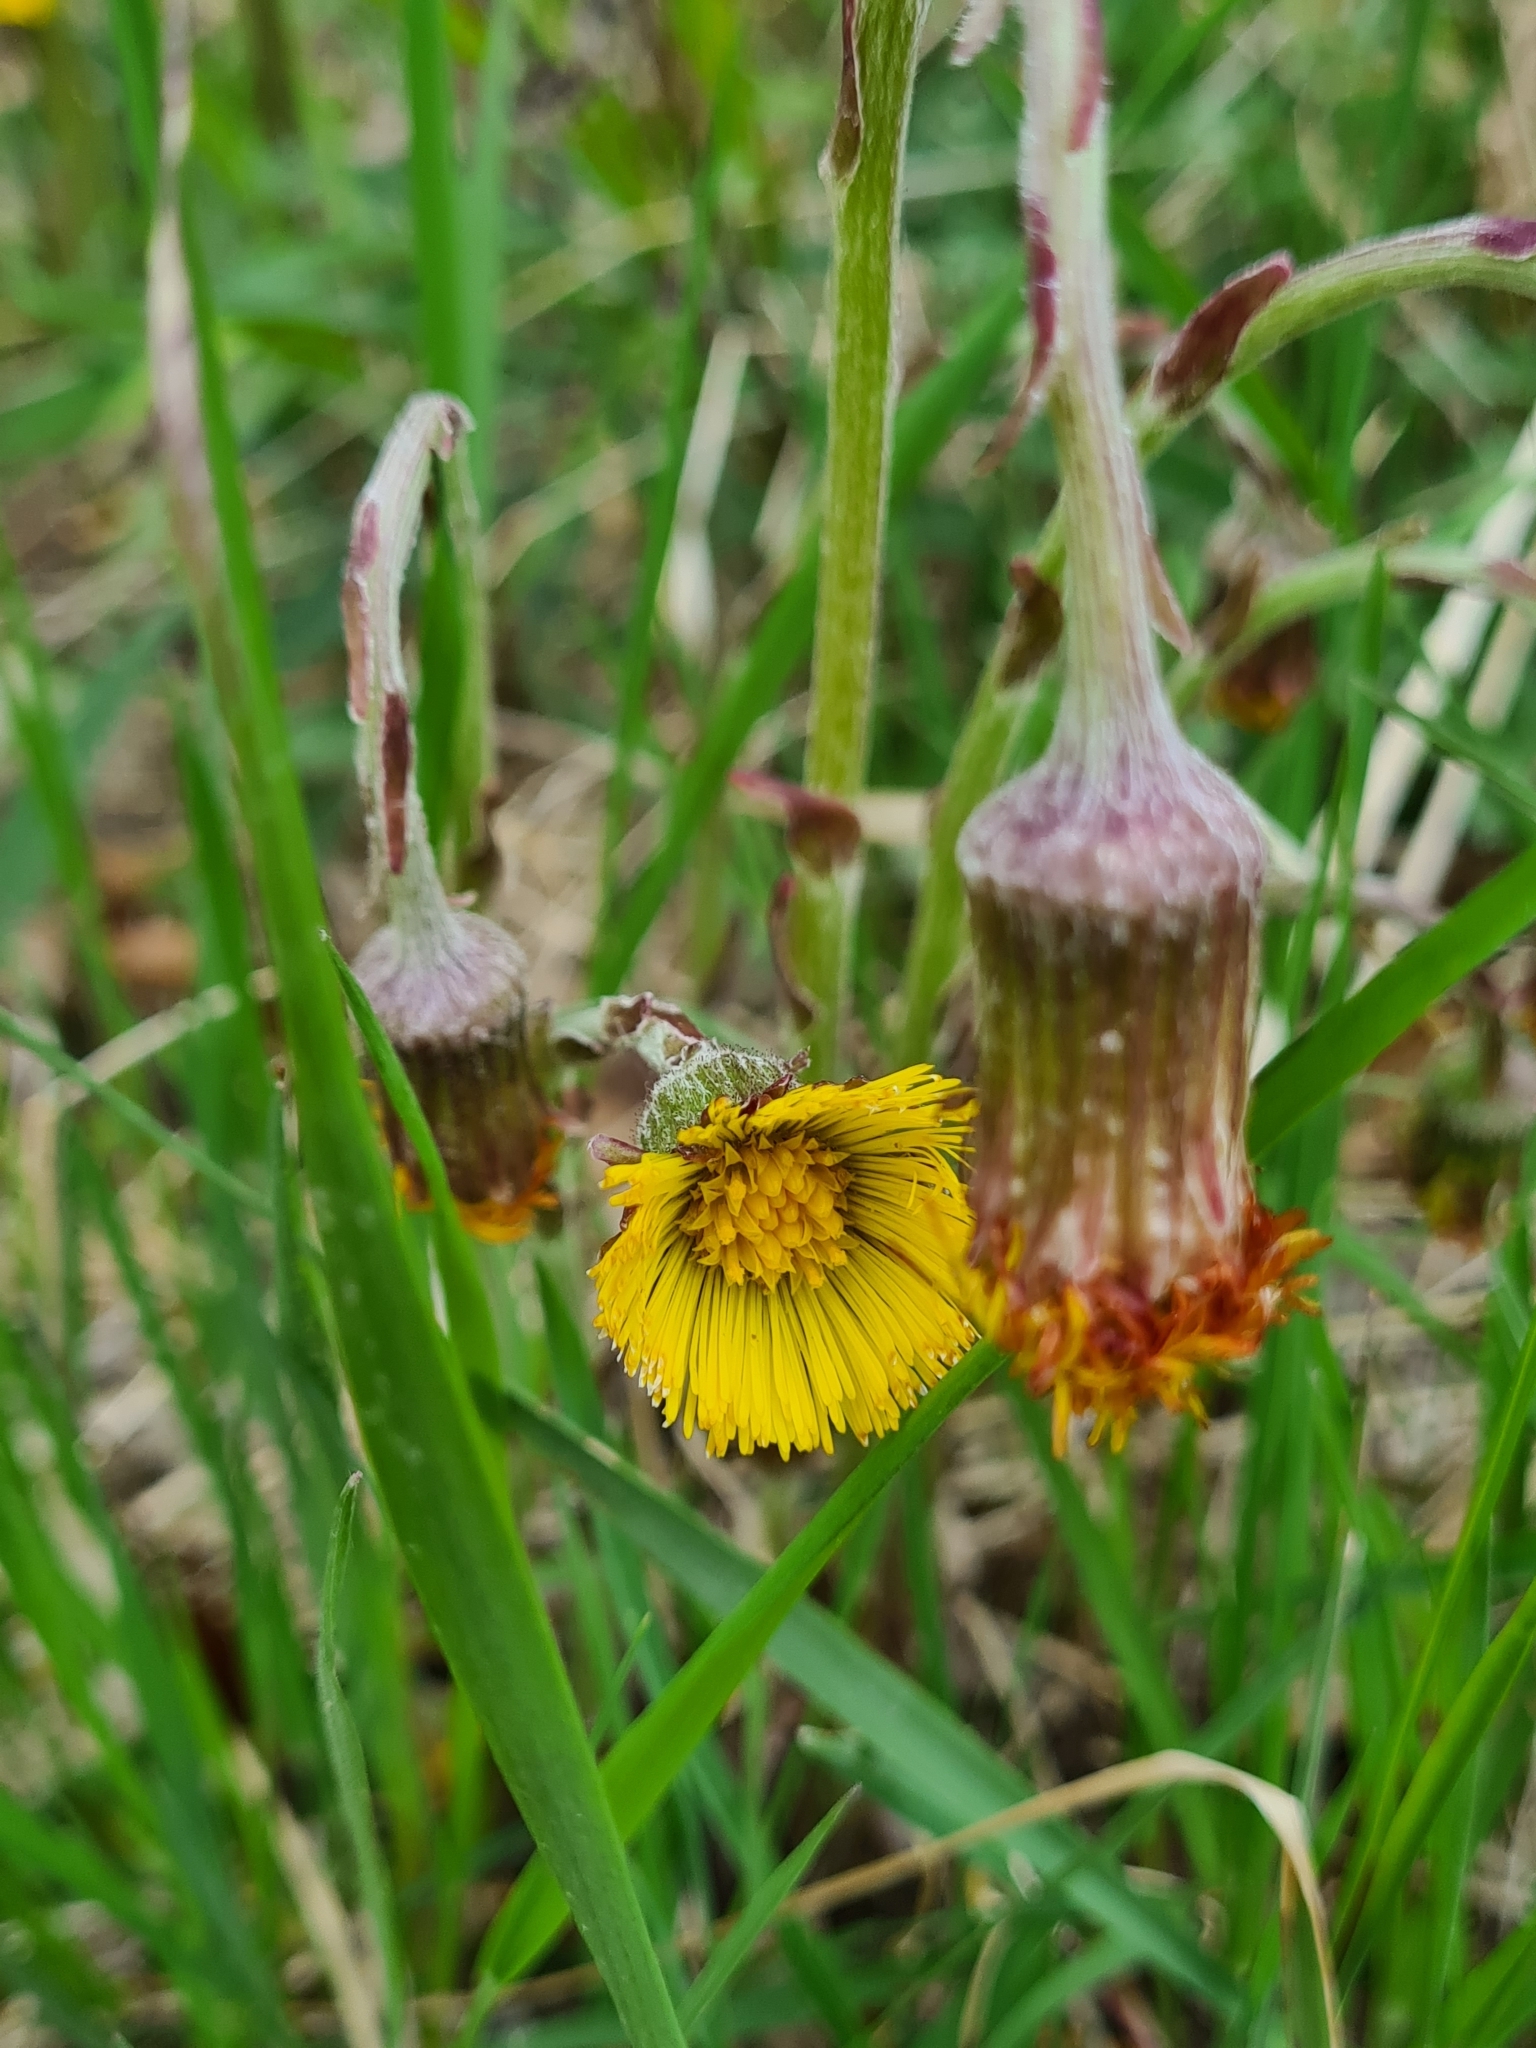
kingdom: Plantae
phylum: Tracheophyta
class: Magnoliopsida
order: Asterales
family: Asteraceae
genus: Tussilago
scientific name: Tussilago farfara
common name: Coltsfoot
